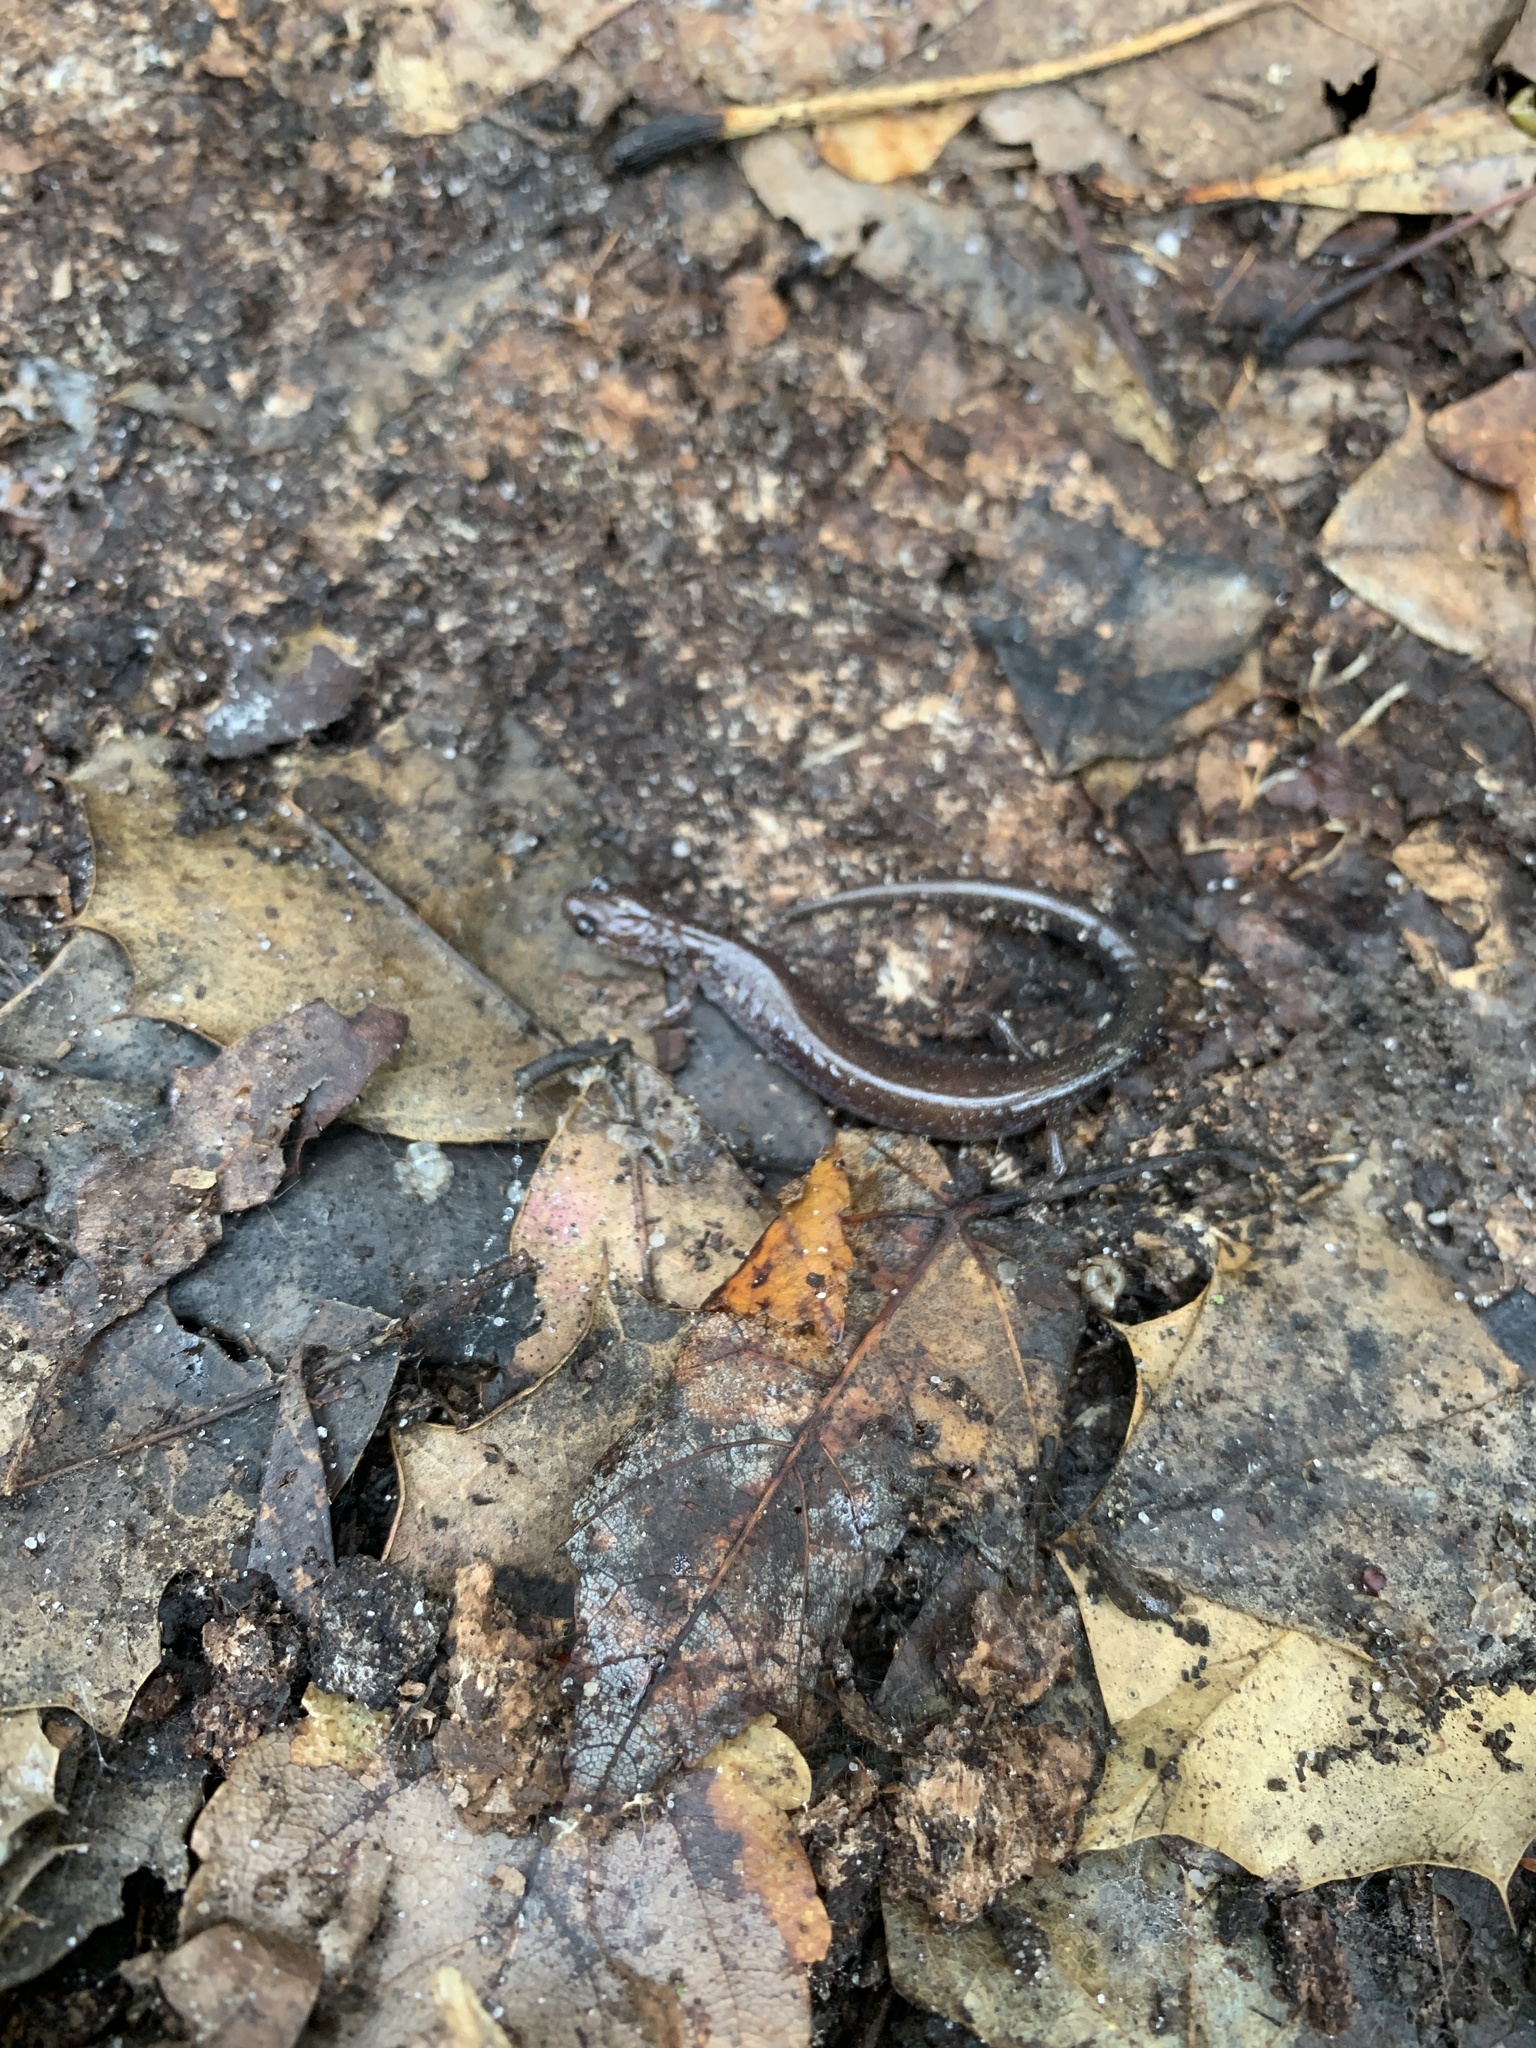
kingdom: Animalia
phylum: Chordata
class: Amphibia
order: Caudata
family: Plethodontidae
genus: Plethodon
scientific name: Plethodon cinereus
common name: Redback salamander
